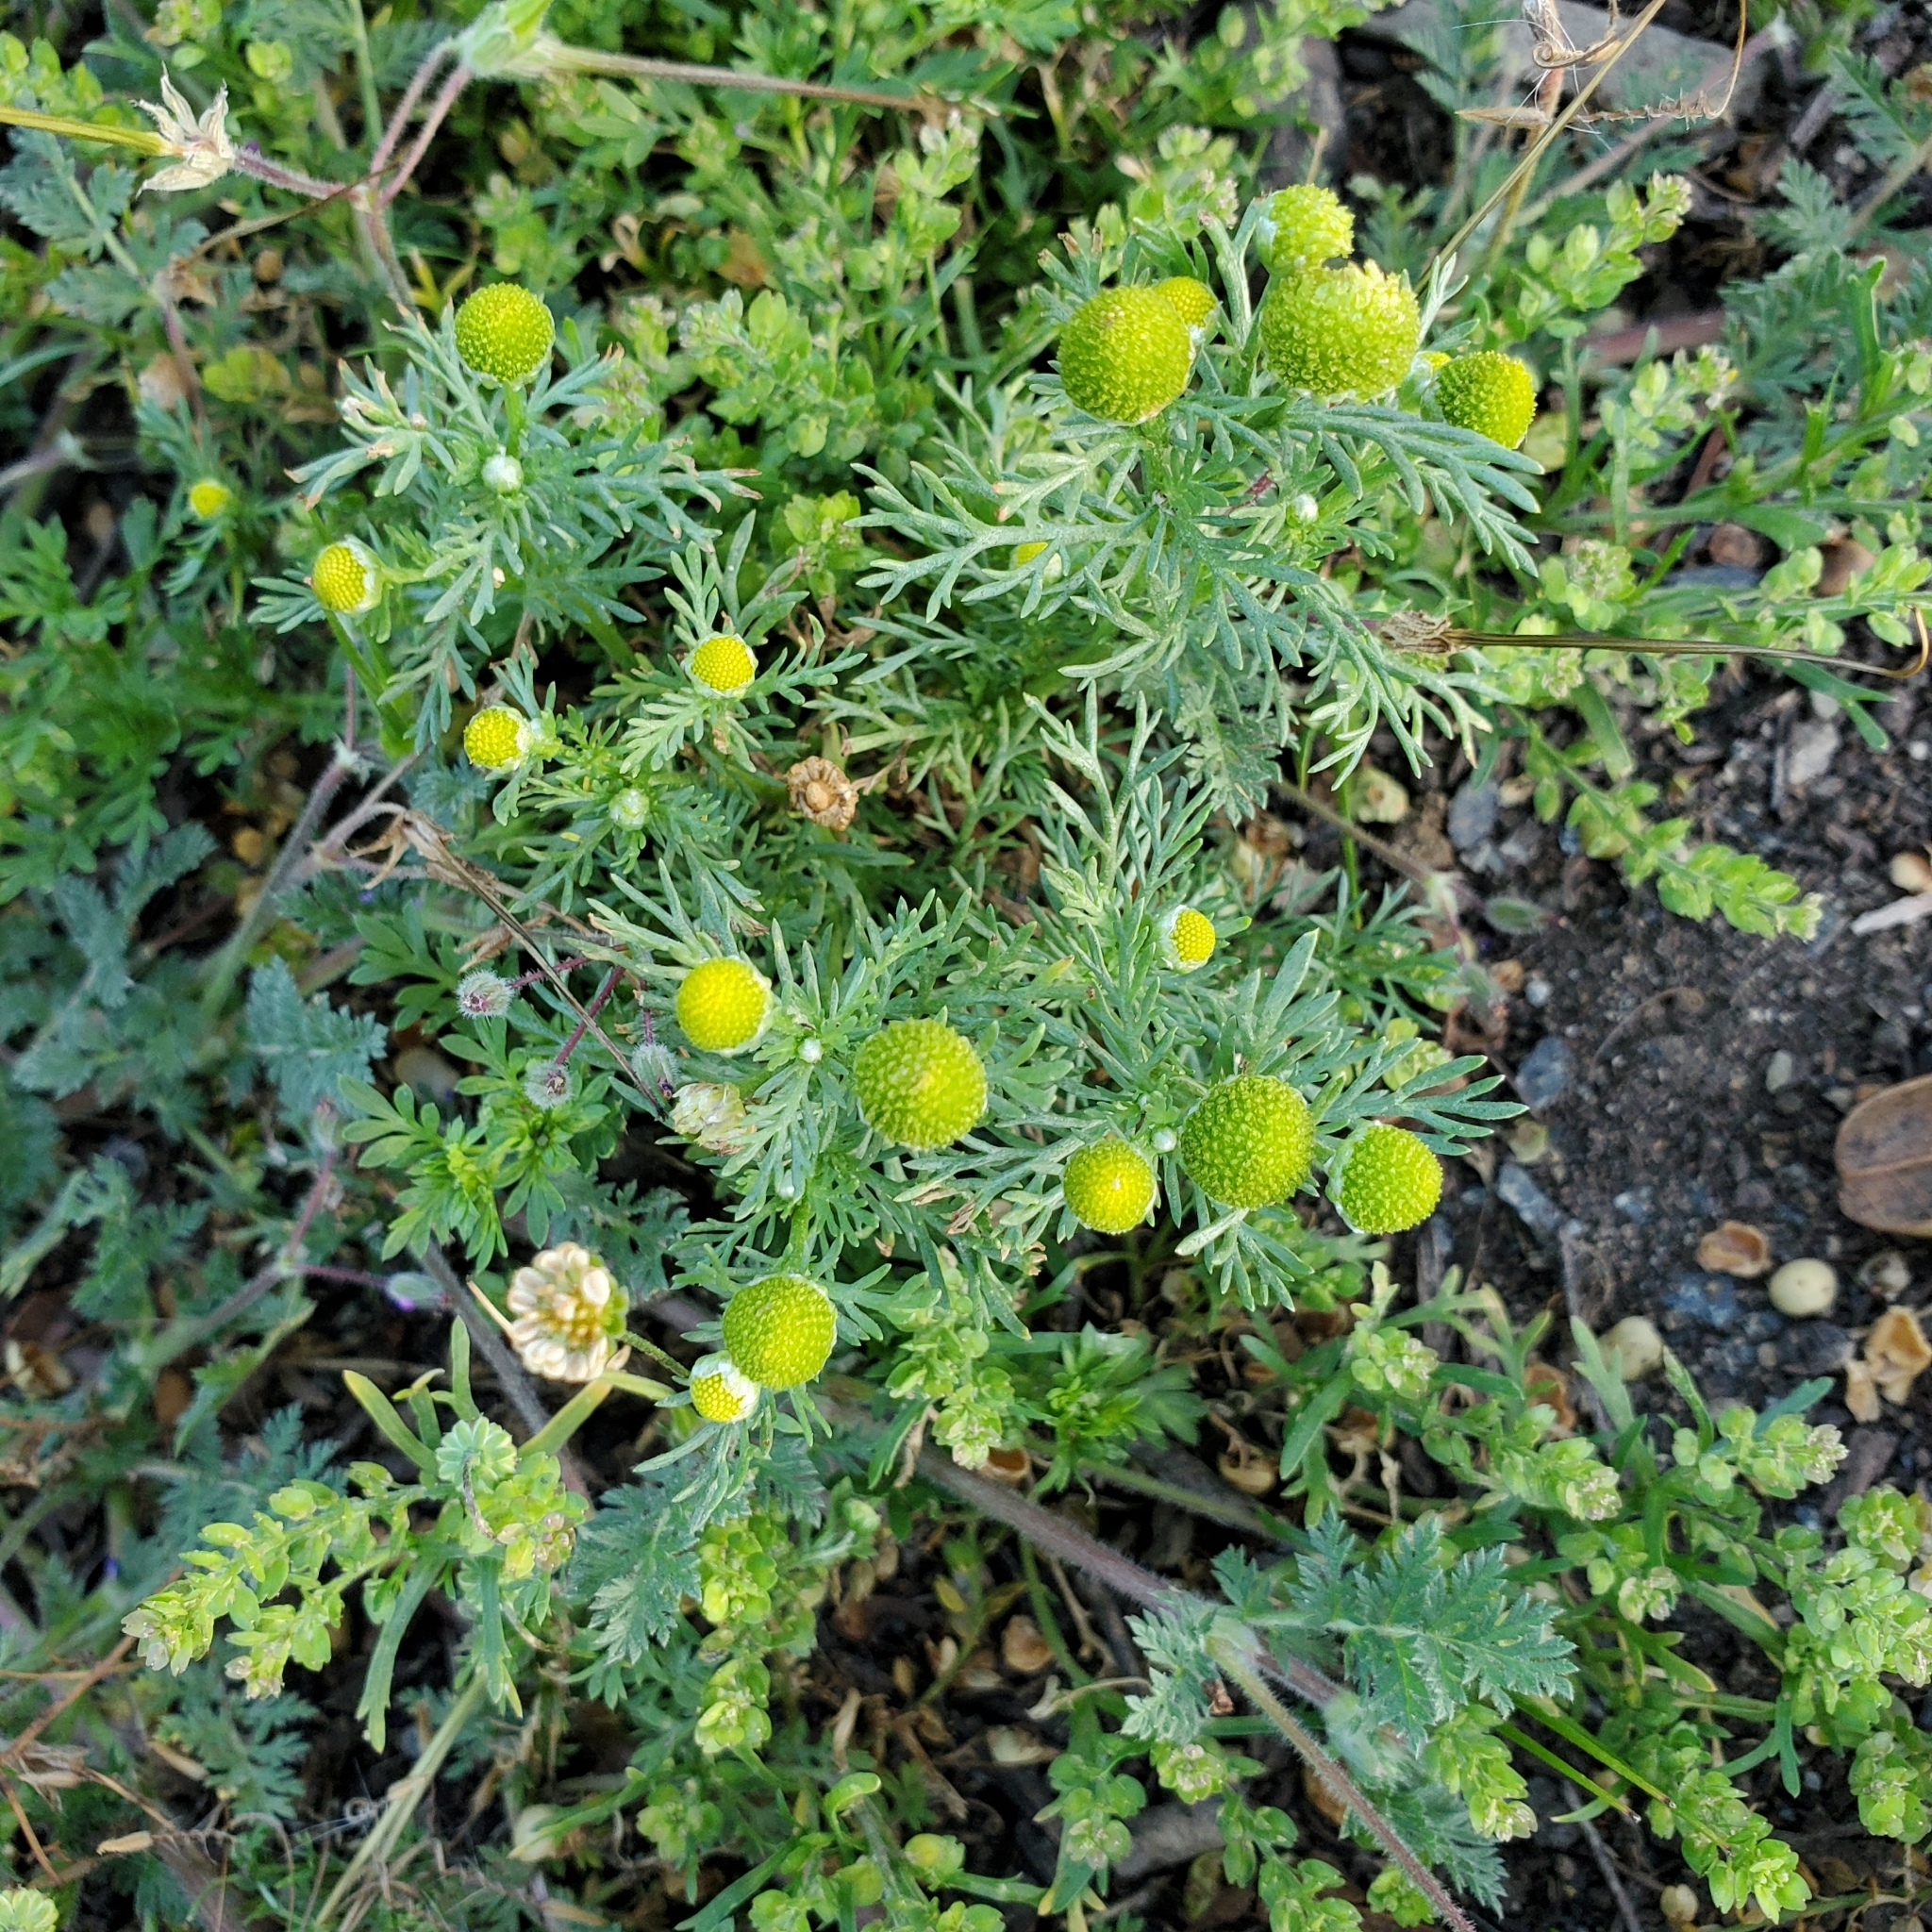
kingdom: Plantae
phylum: Tracheophyta
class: Magnoliopsida
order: Asterales
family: Asteraceae
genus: Matricaria
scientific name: Matricaria discoidea
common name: Disc mayweed
